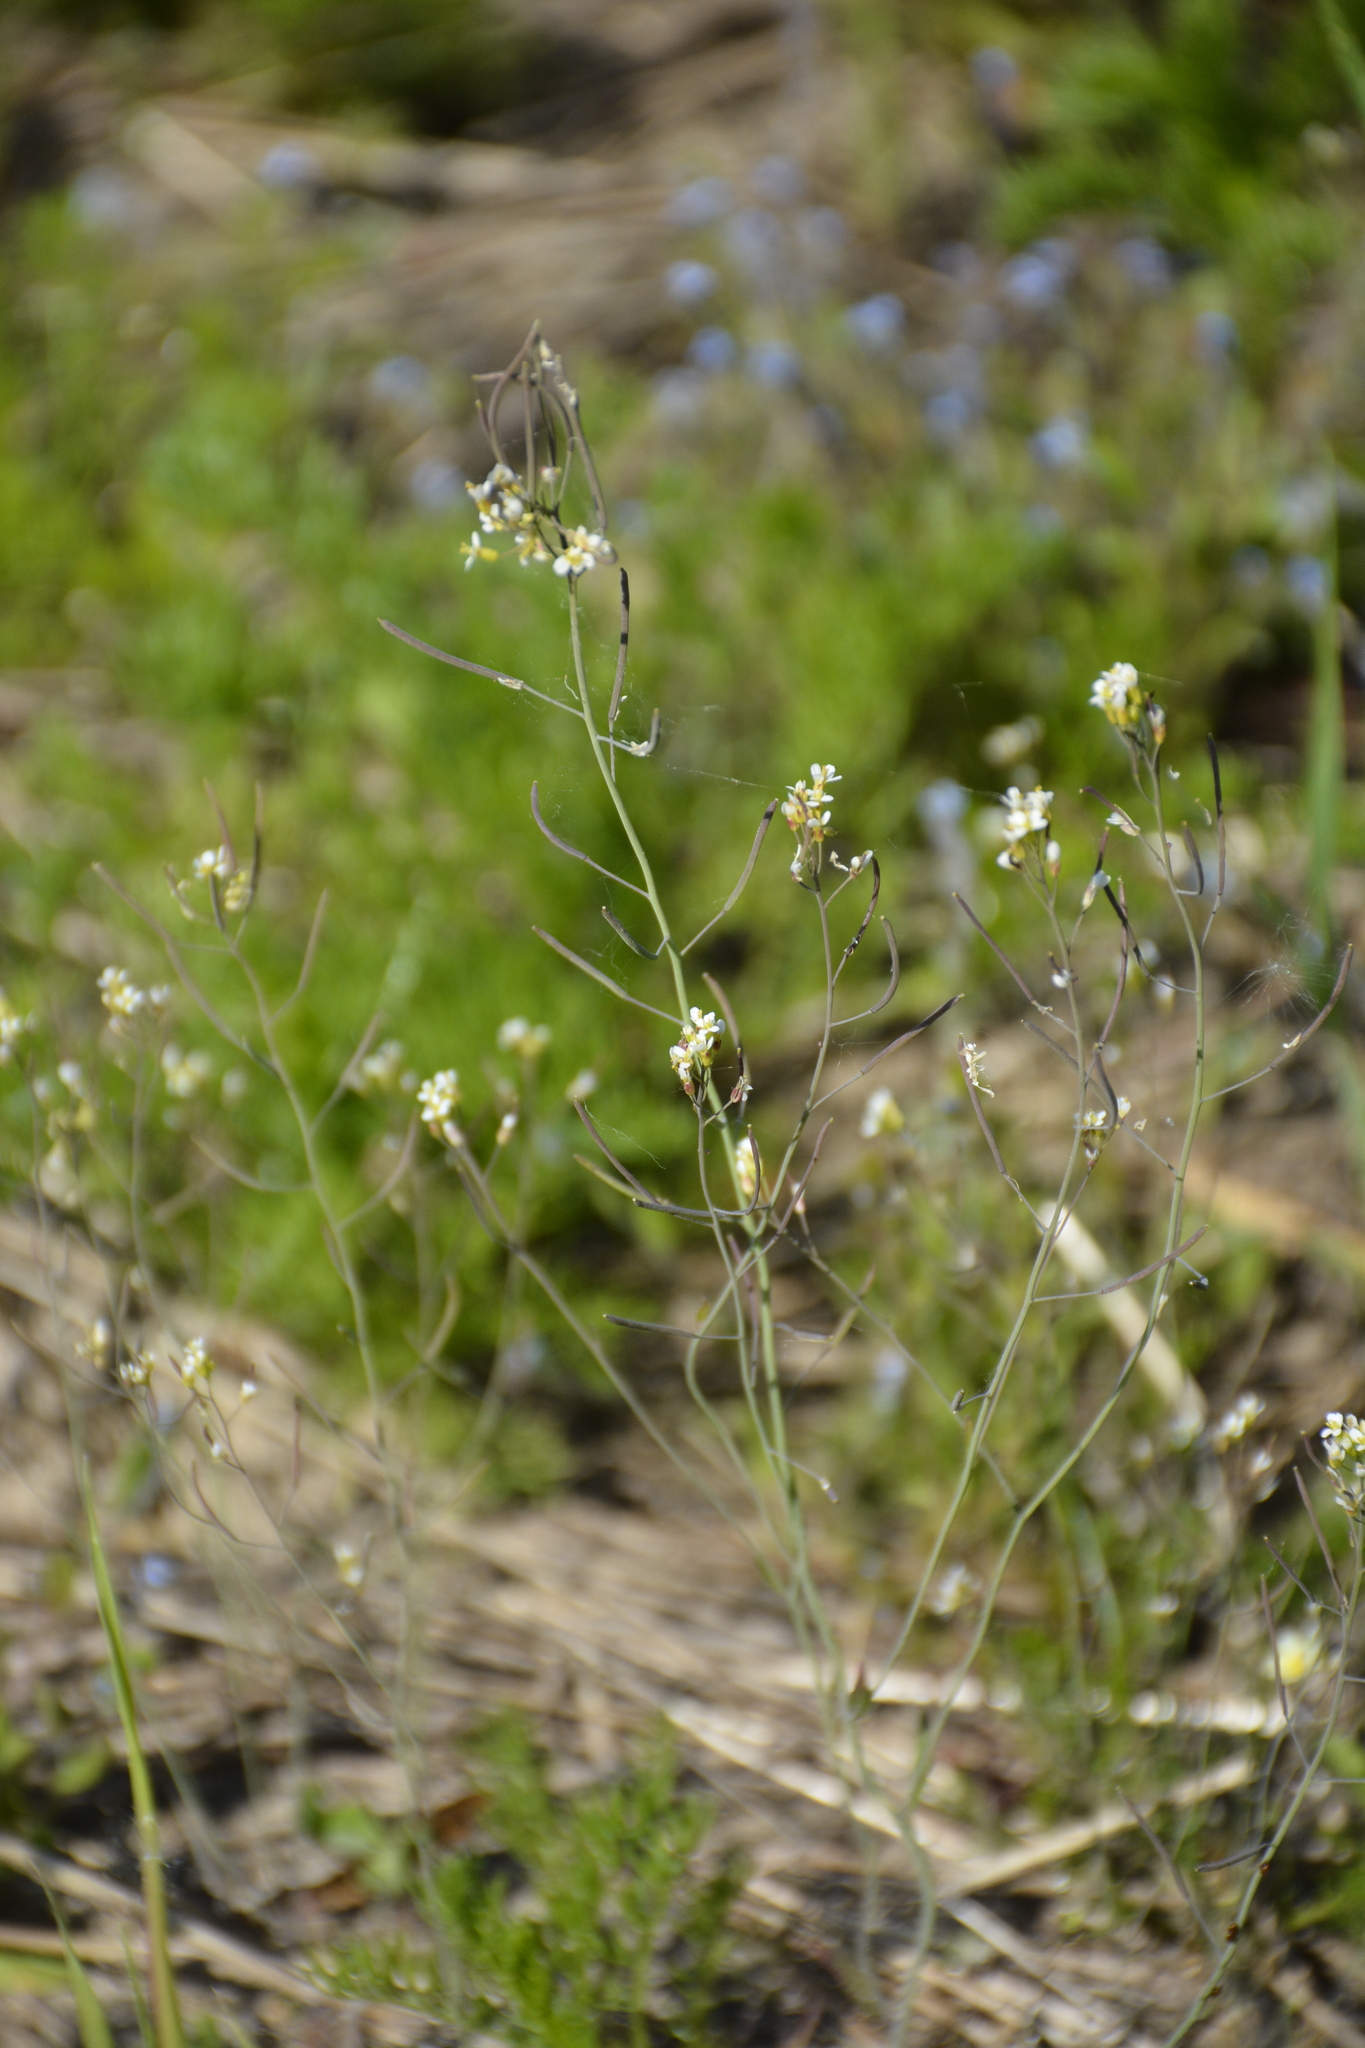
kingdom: Plantae
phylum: Tracheophyta
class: Magnoliopsida
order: Brassicales
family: Brassicaceae
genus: Arabidopsis
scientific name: Arabidopsis thaliana
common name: Thale cress
